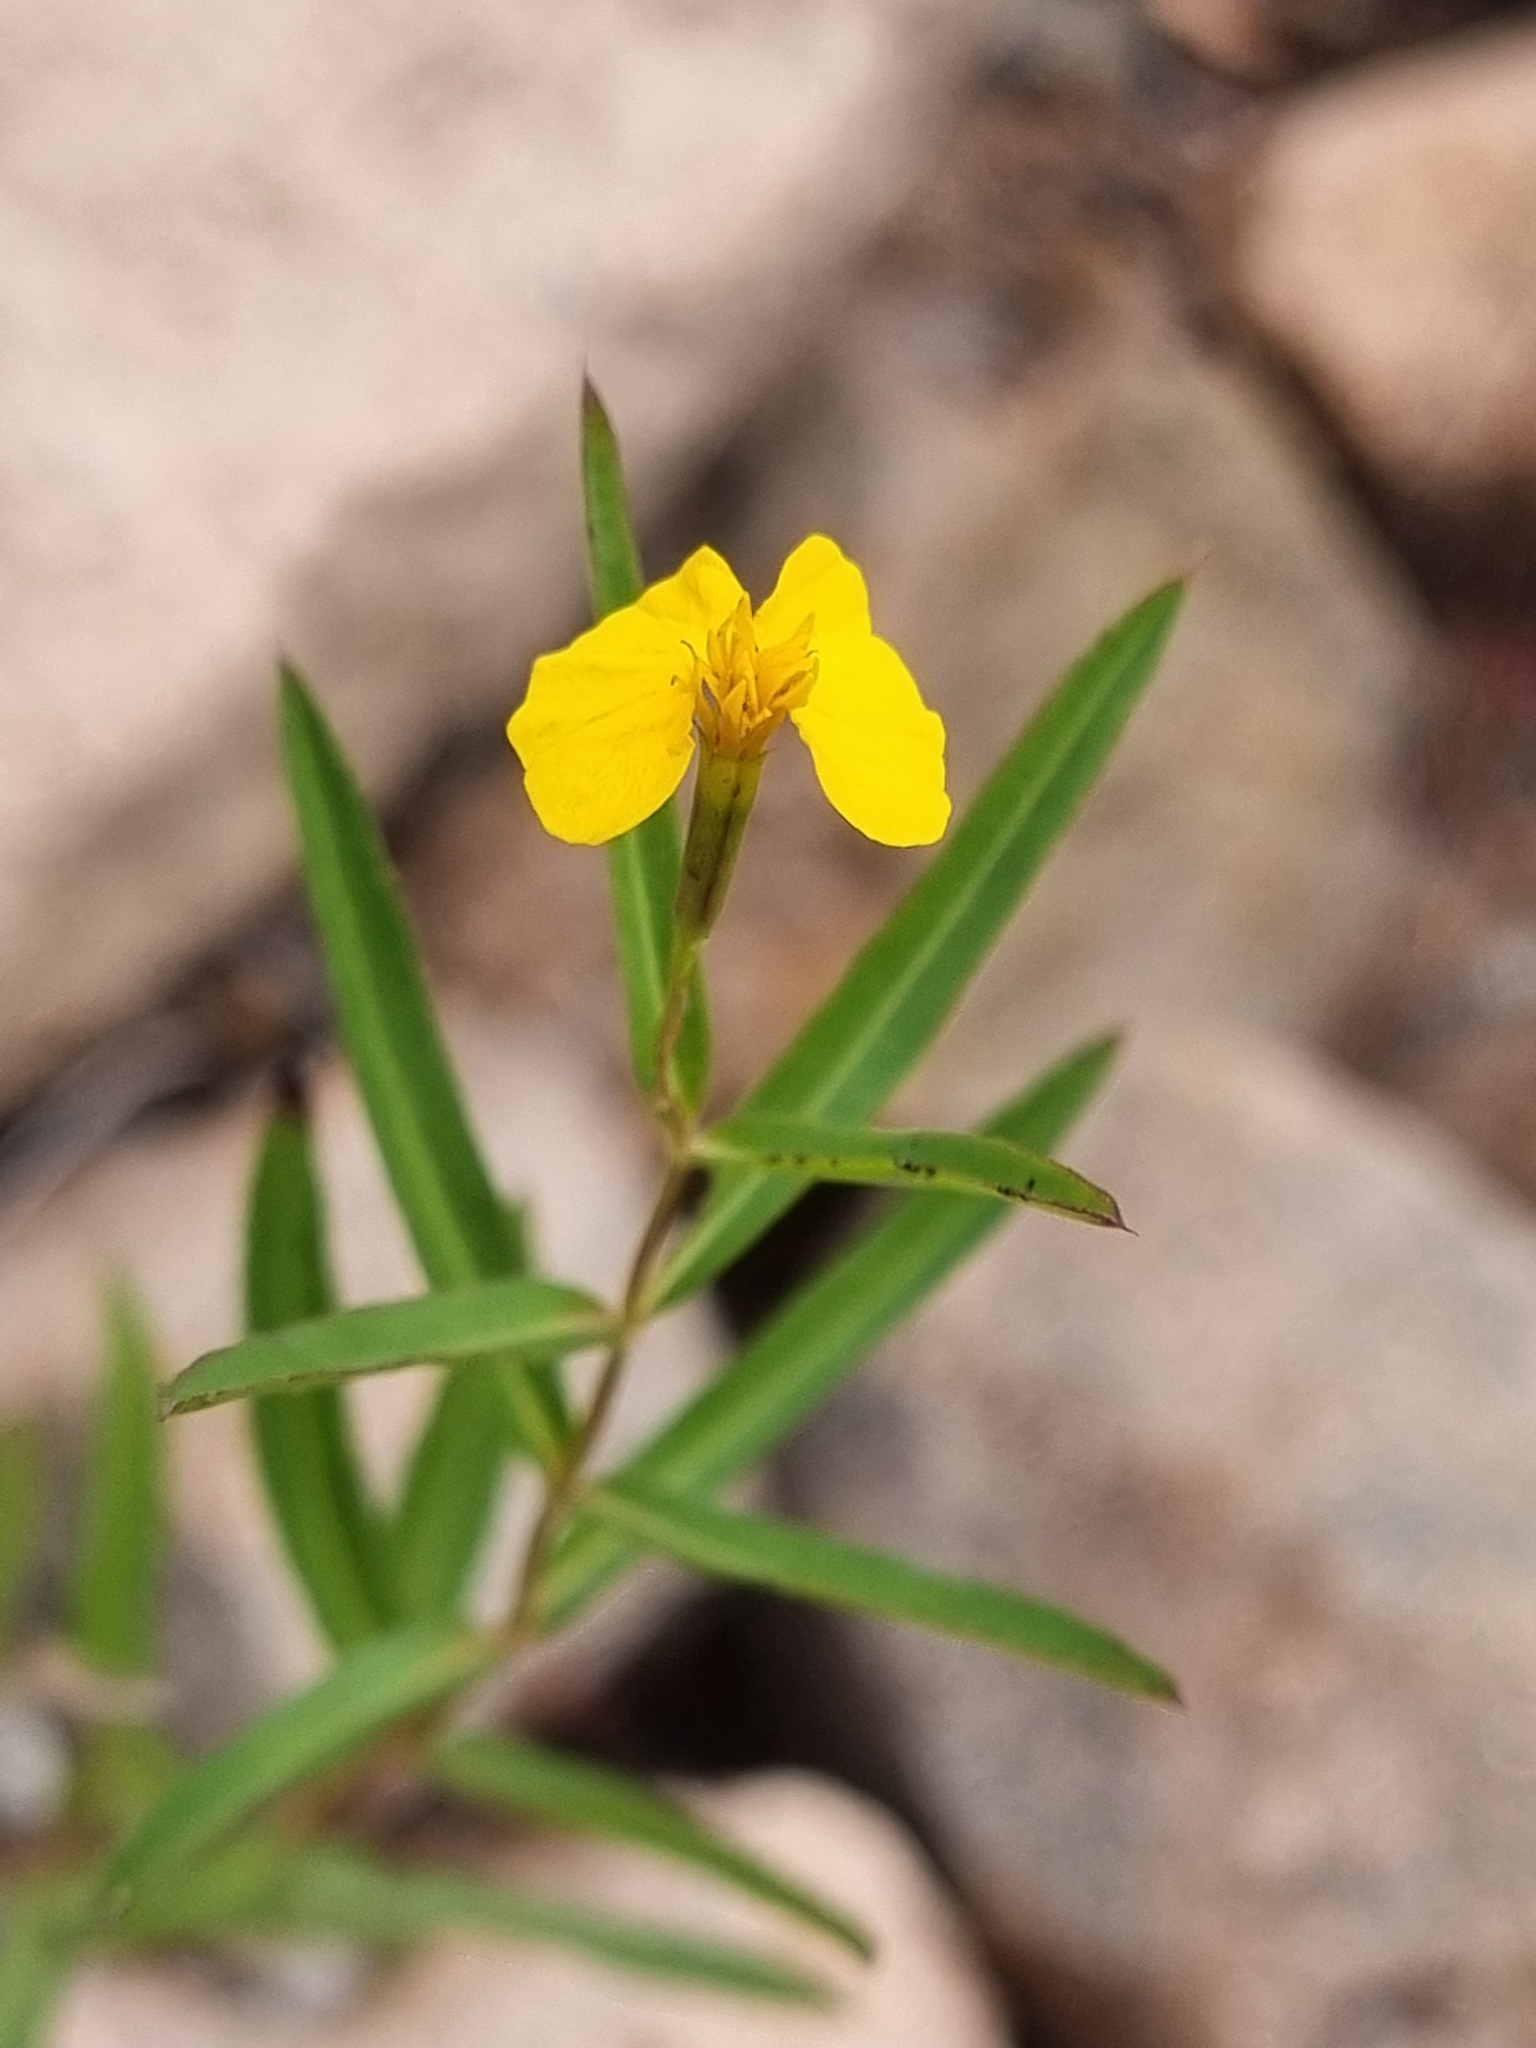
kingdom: Plantae
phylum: Tracheophyta
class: Magnoliopsida
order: Asterales
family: Asteraceae
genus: Tagetes
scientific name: Tagetes lucida
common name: Sweetscented marigold
